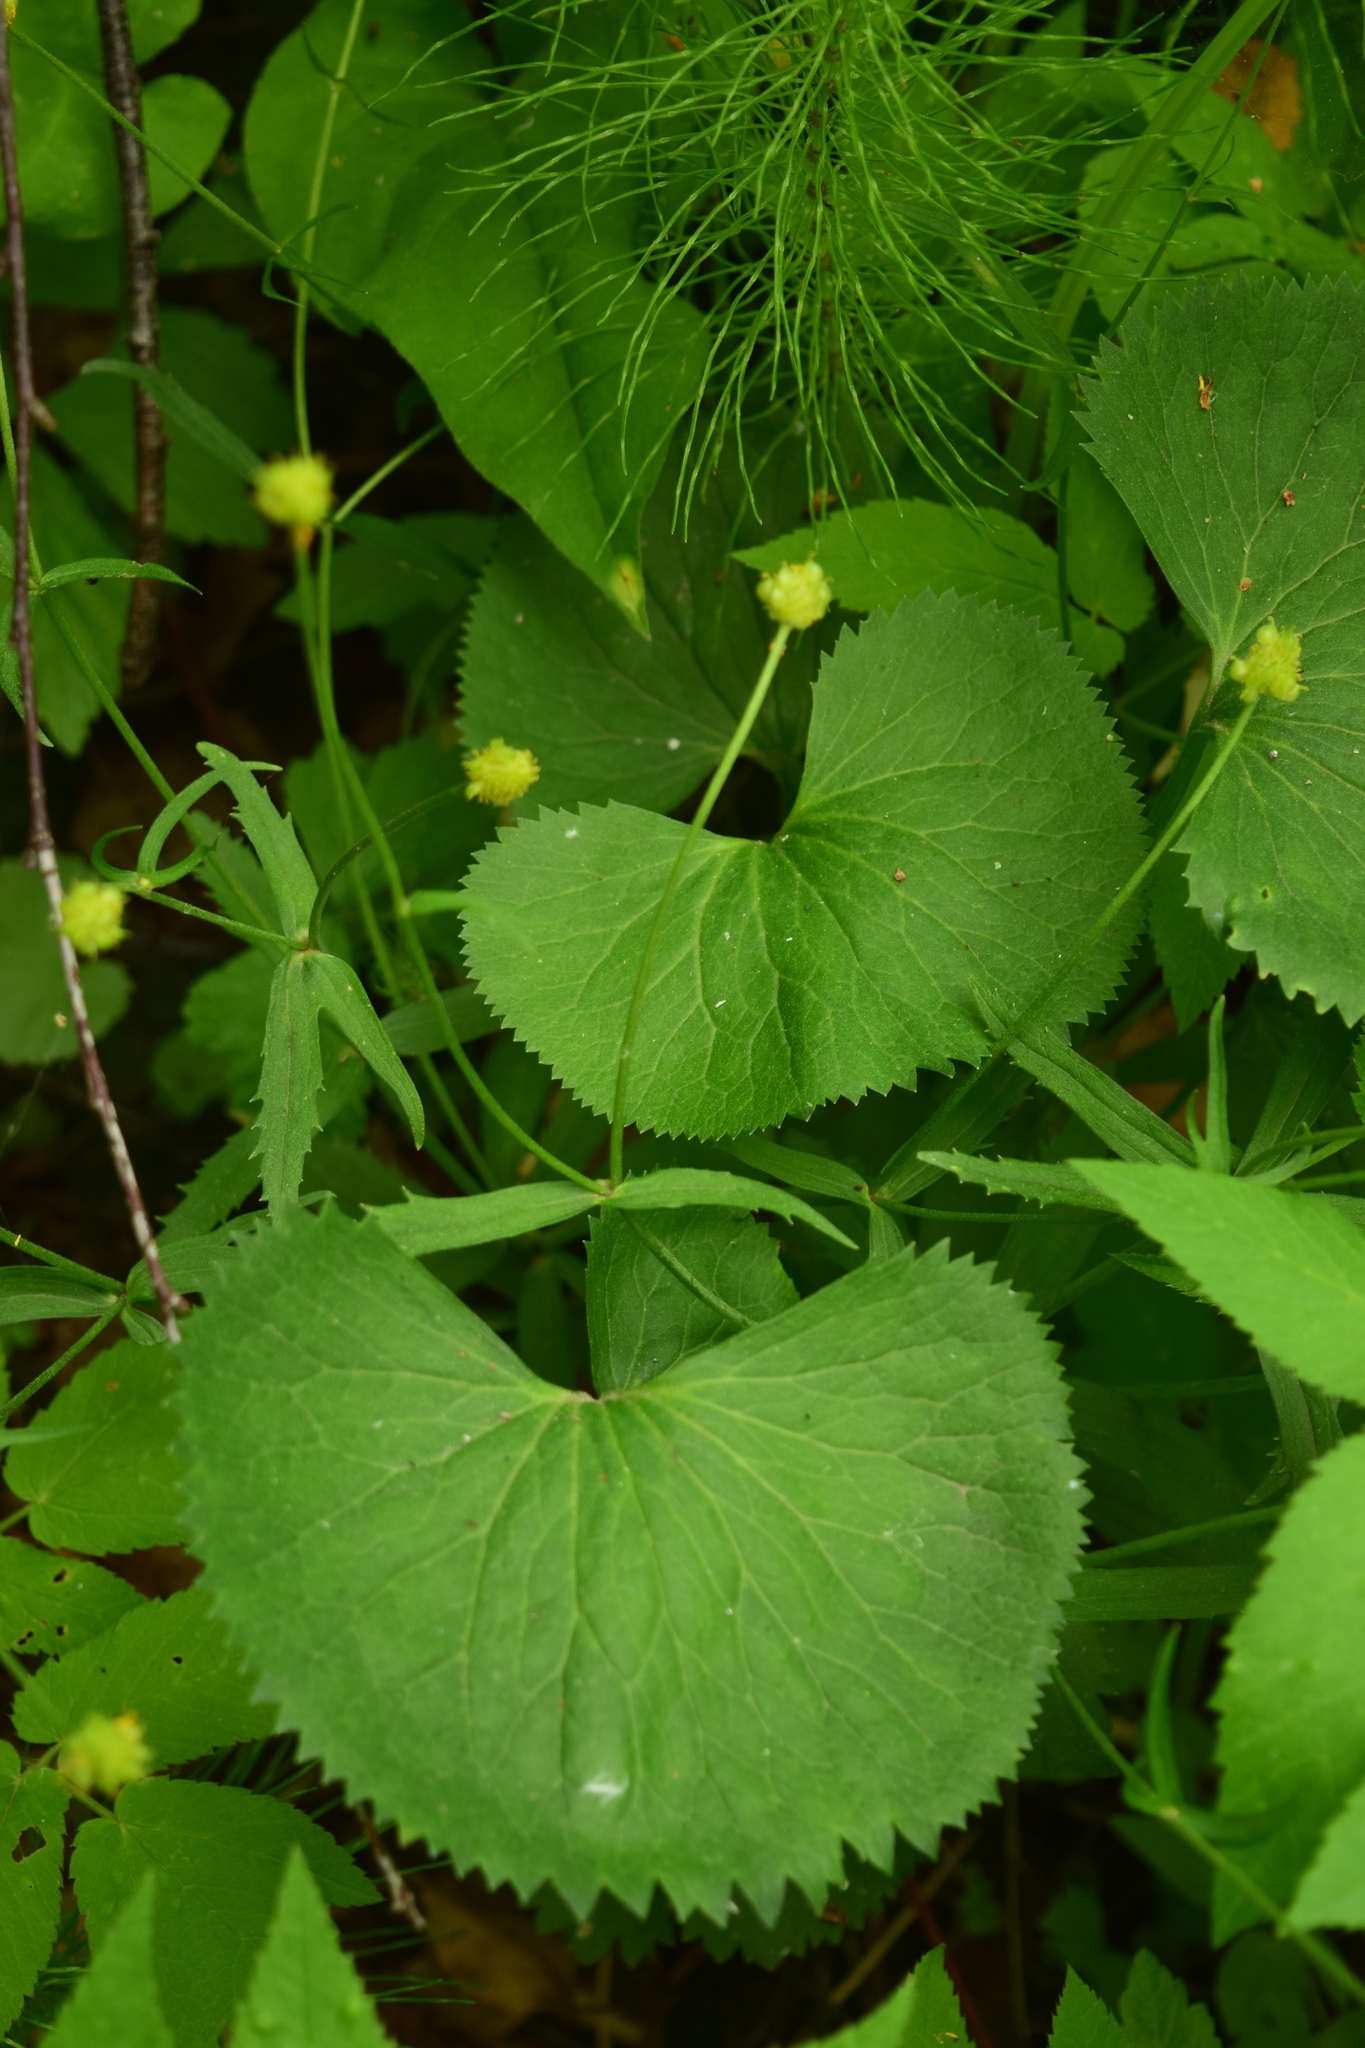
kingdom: Plantae
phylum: Tracheophyta
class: Magnoliopsida
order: Ranunculales
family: Ranunculaceae
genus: Ranunculus
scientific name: Ranunculus cassubicus
